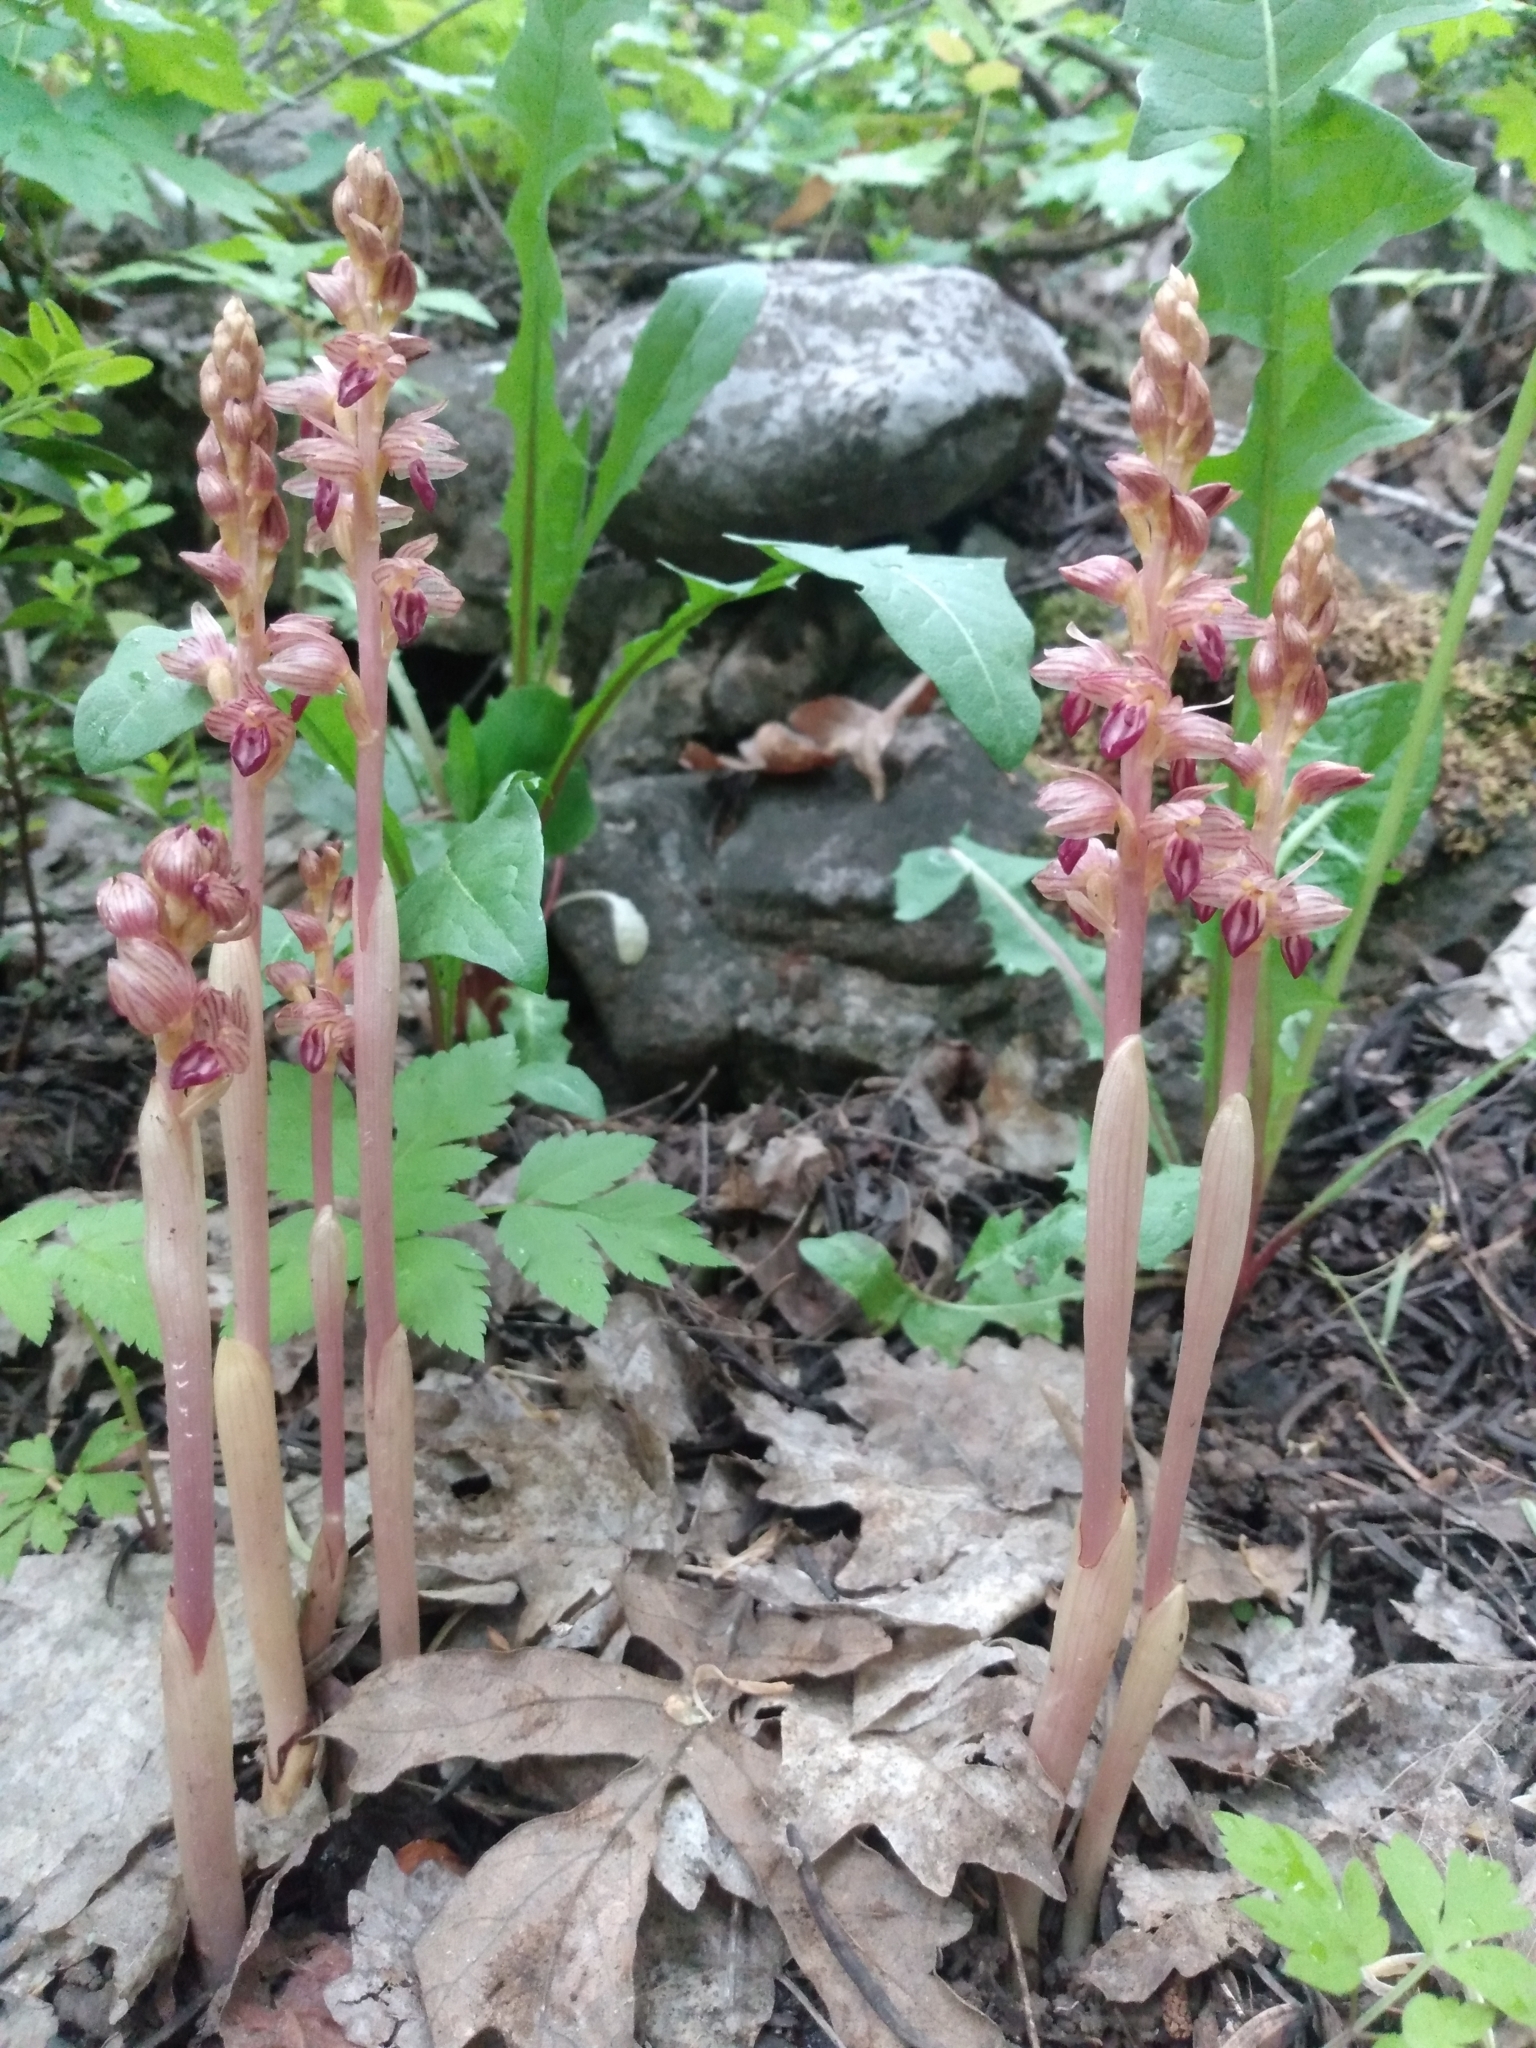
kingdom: Plantae
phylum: Tracheophyta
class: Liliopsida
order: Asparagales
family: Orchidaceae
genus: Corallorhiza
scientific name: Corallorhiza striata
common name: Hooded coralroot
